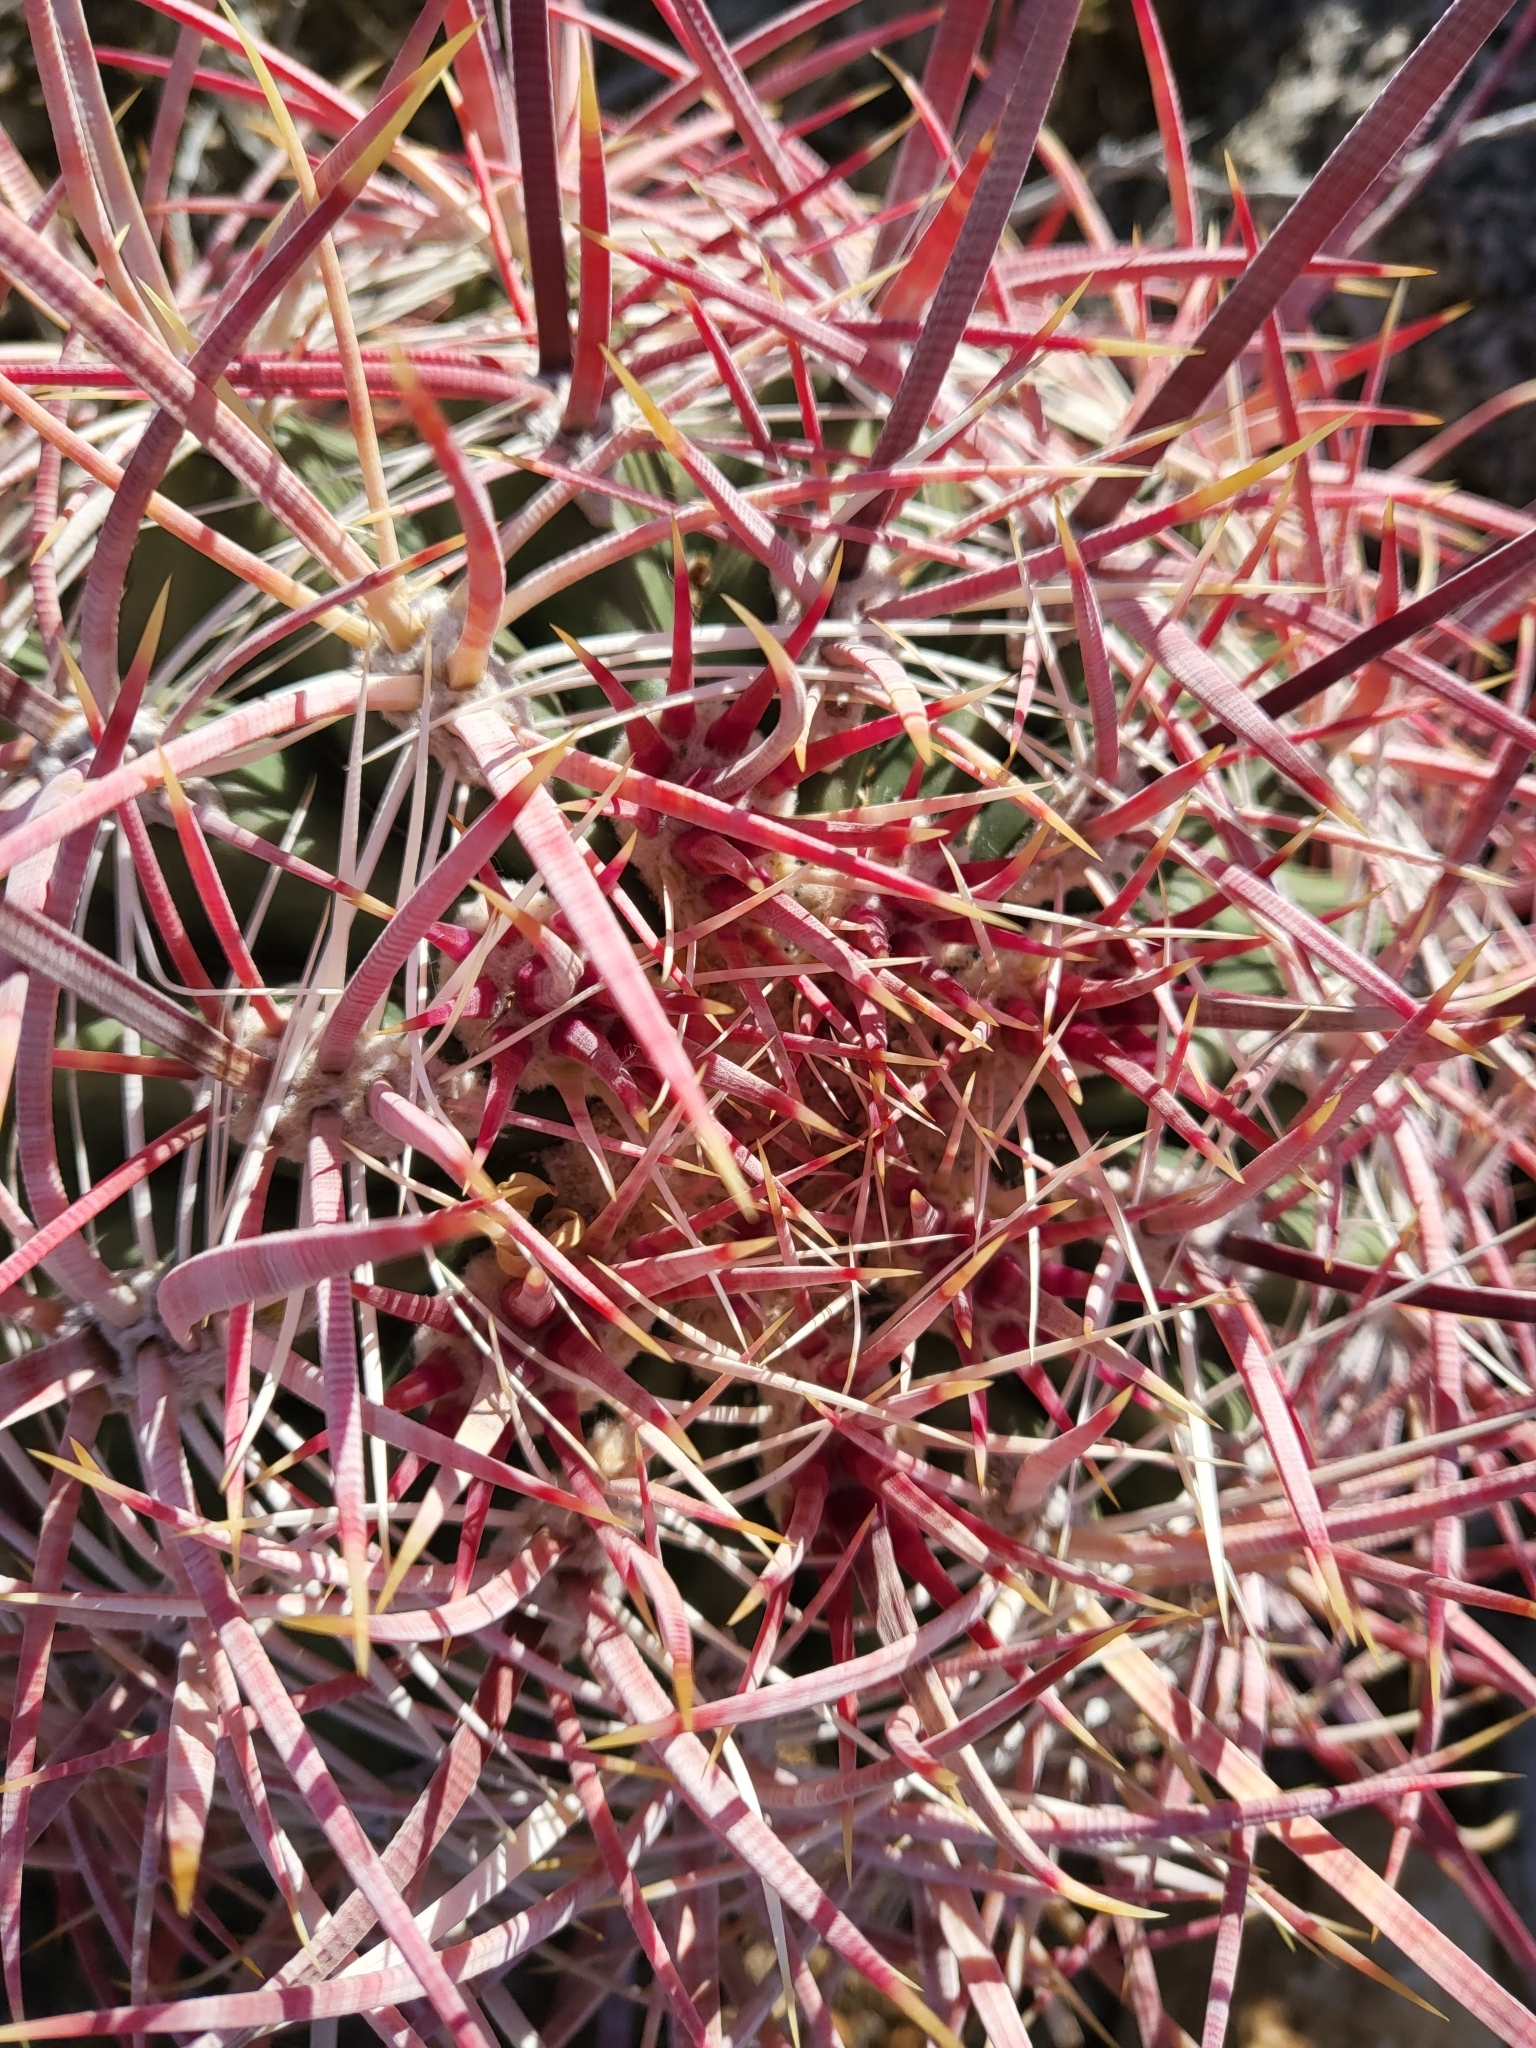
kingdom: Plantae
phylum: Tracheophyta
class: Magnoliopsida
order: Caryophyllales
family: Cactaceae
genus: Ferocactus
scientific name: Ferocactus cylindraceus
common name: California barrel cactus
